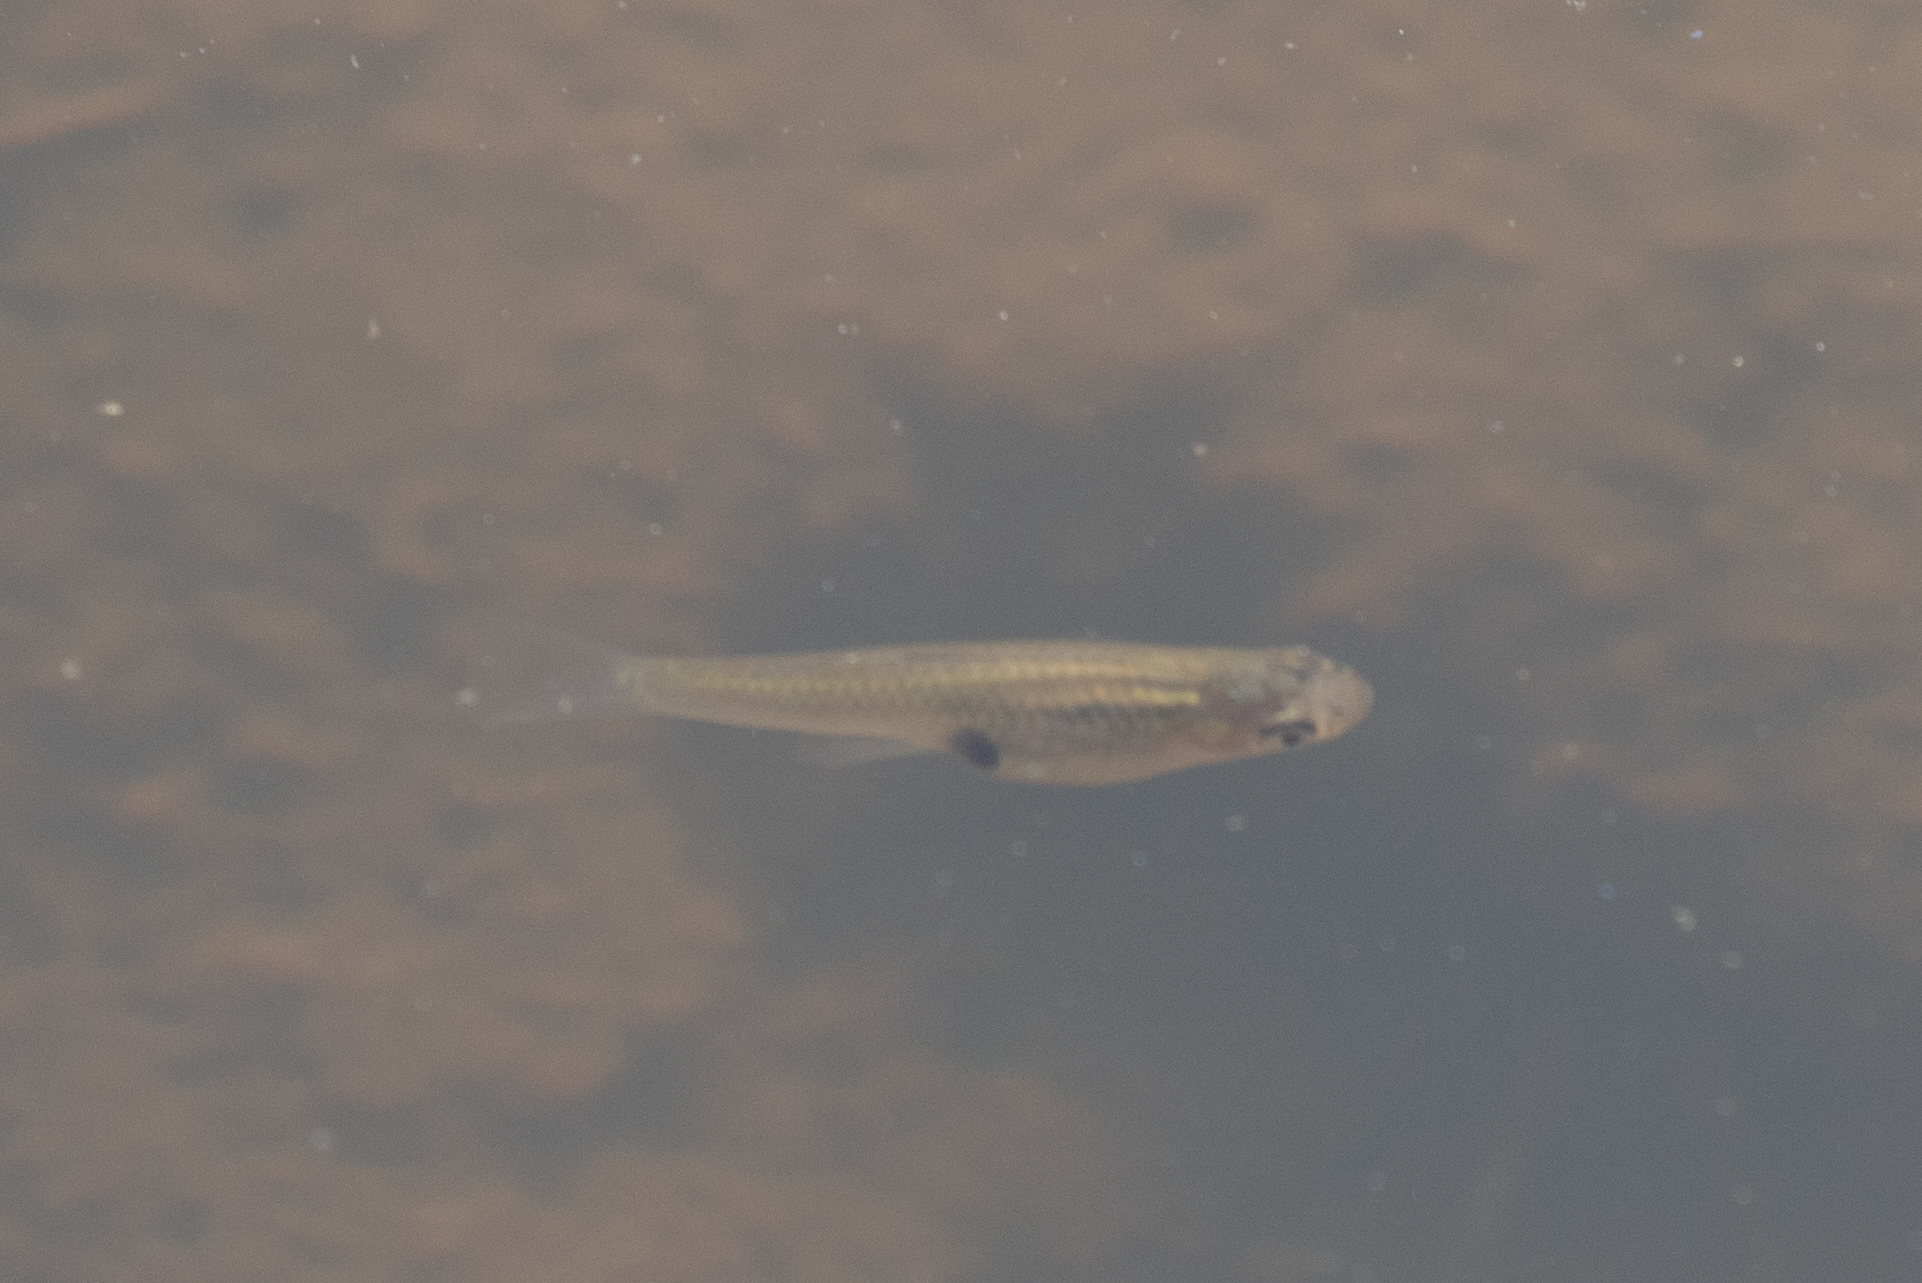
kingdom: Animalia
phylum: Chordata
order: Cyprinodontiformes
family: Poeciliidae
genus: Gambusia
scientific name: Gambusia holbrooki
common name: Eastern mosquitofish
